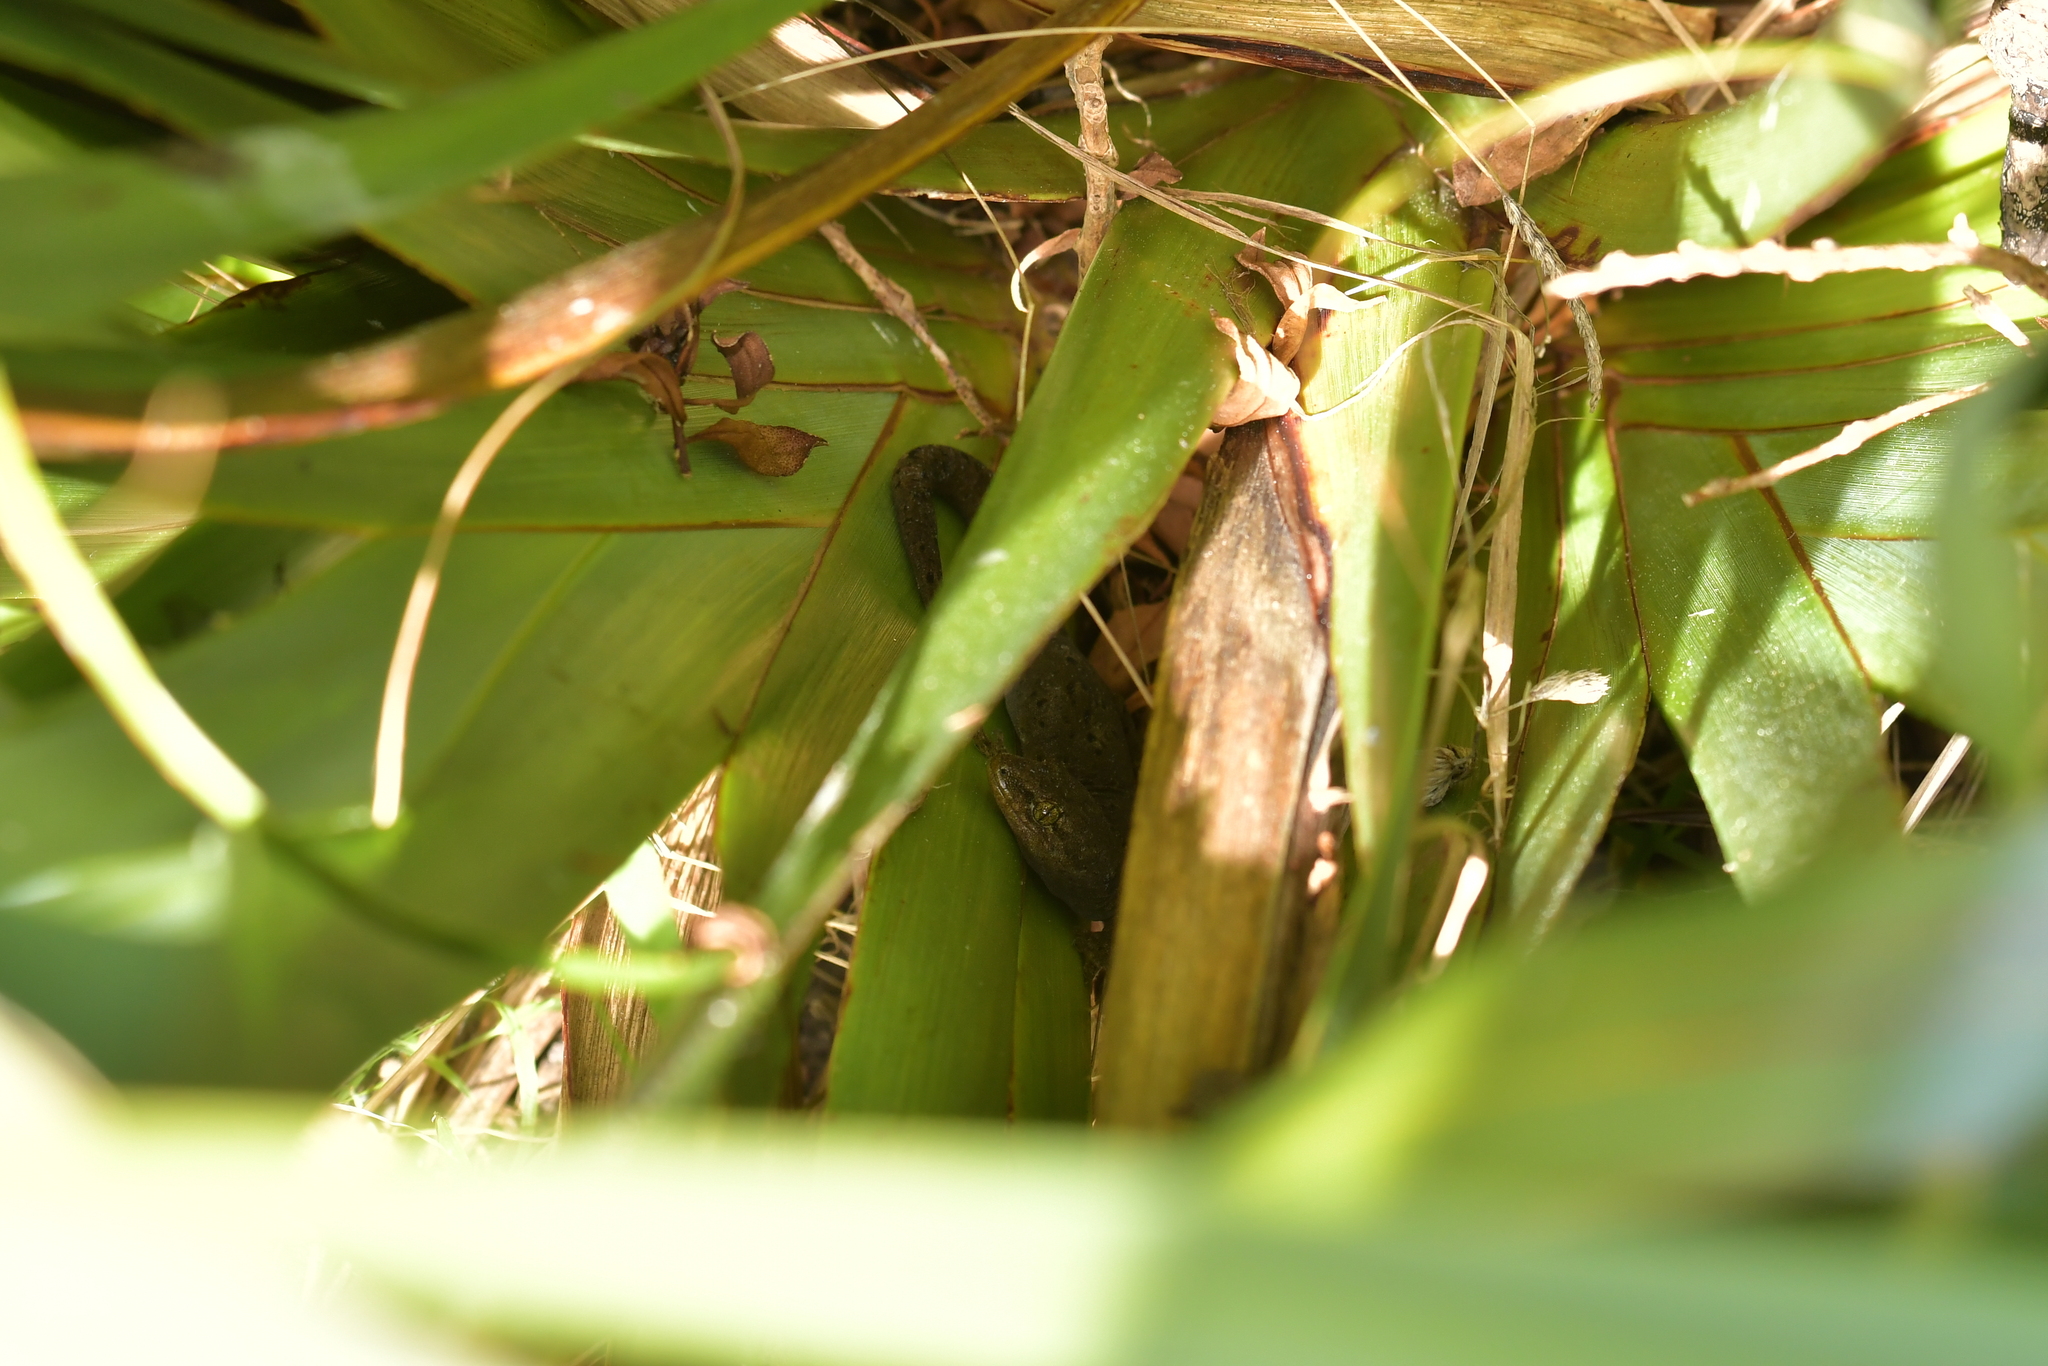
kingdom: Animalia
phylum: Chordata
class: Squamata
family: Diplodactylidae
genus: Woodworthia
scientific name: Woodworthia maculata
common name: Raukawa gecko
